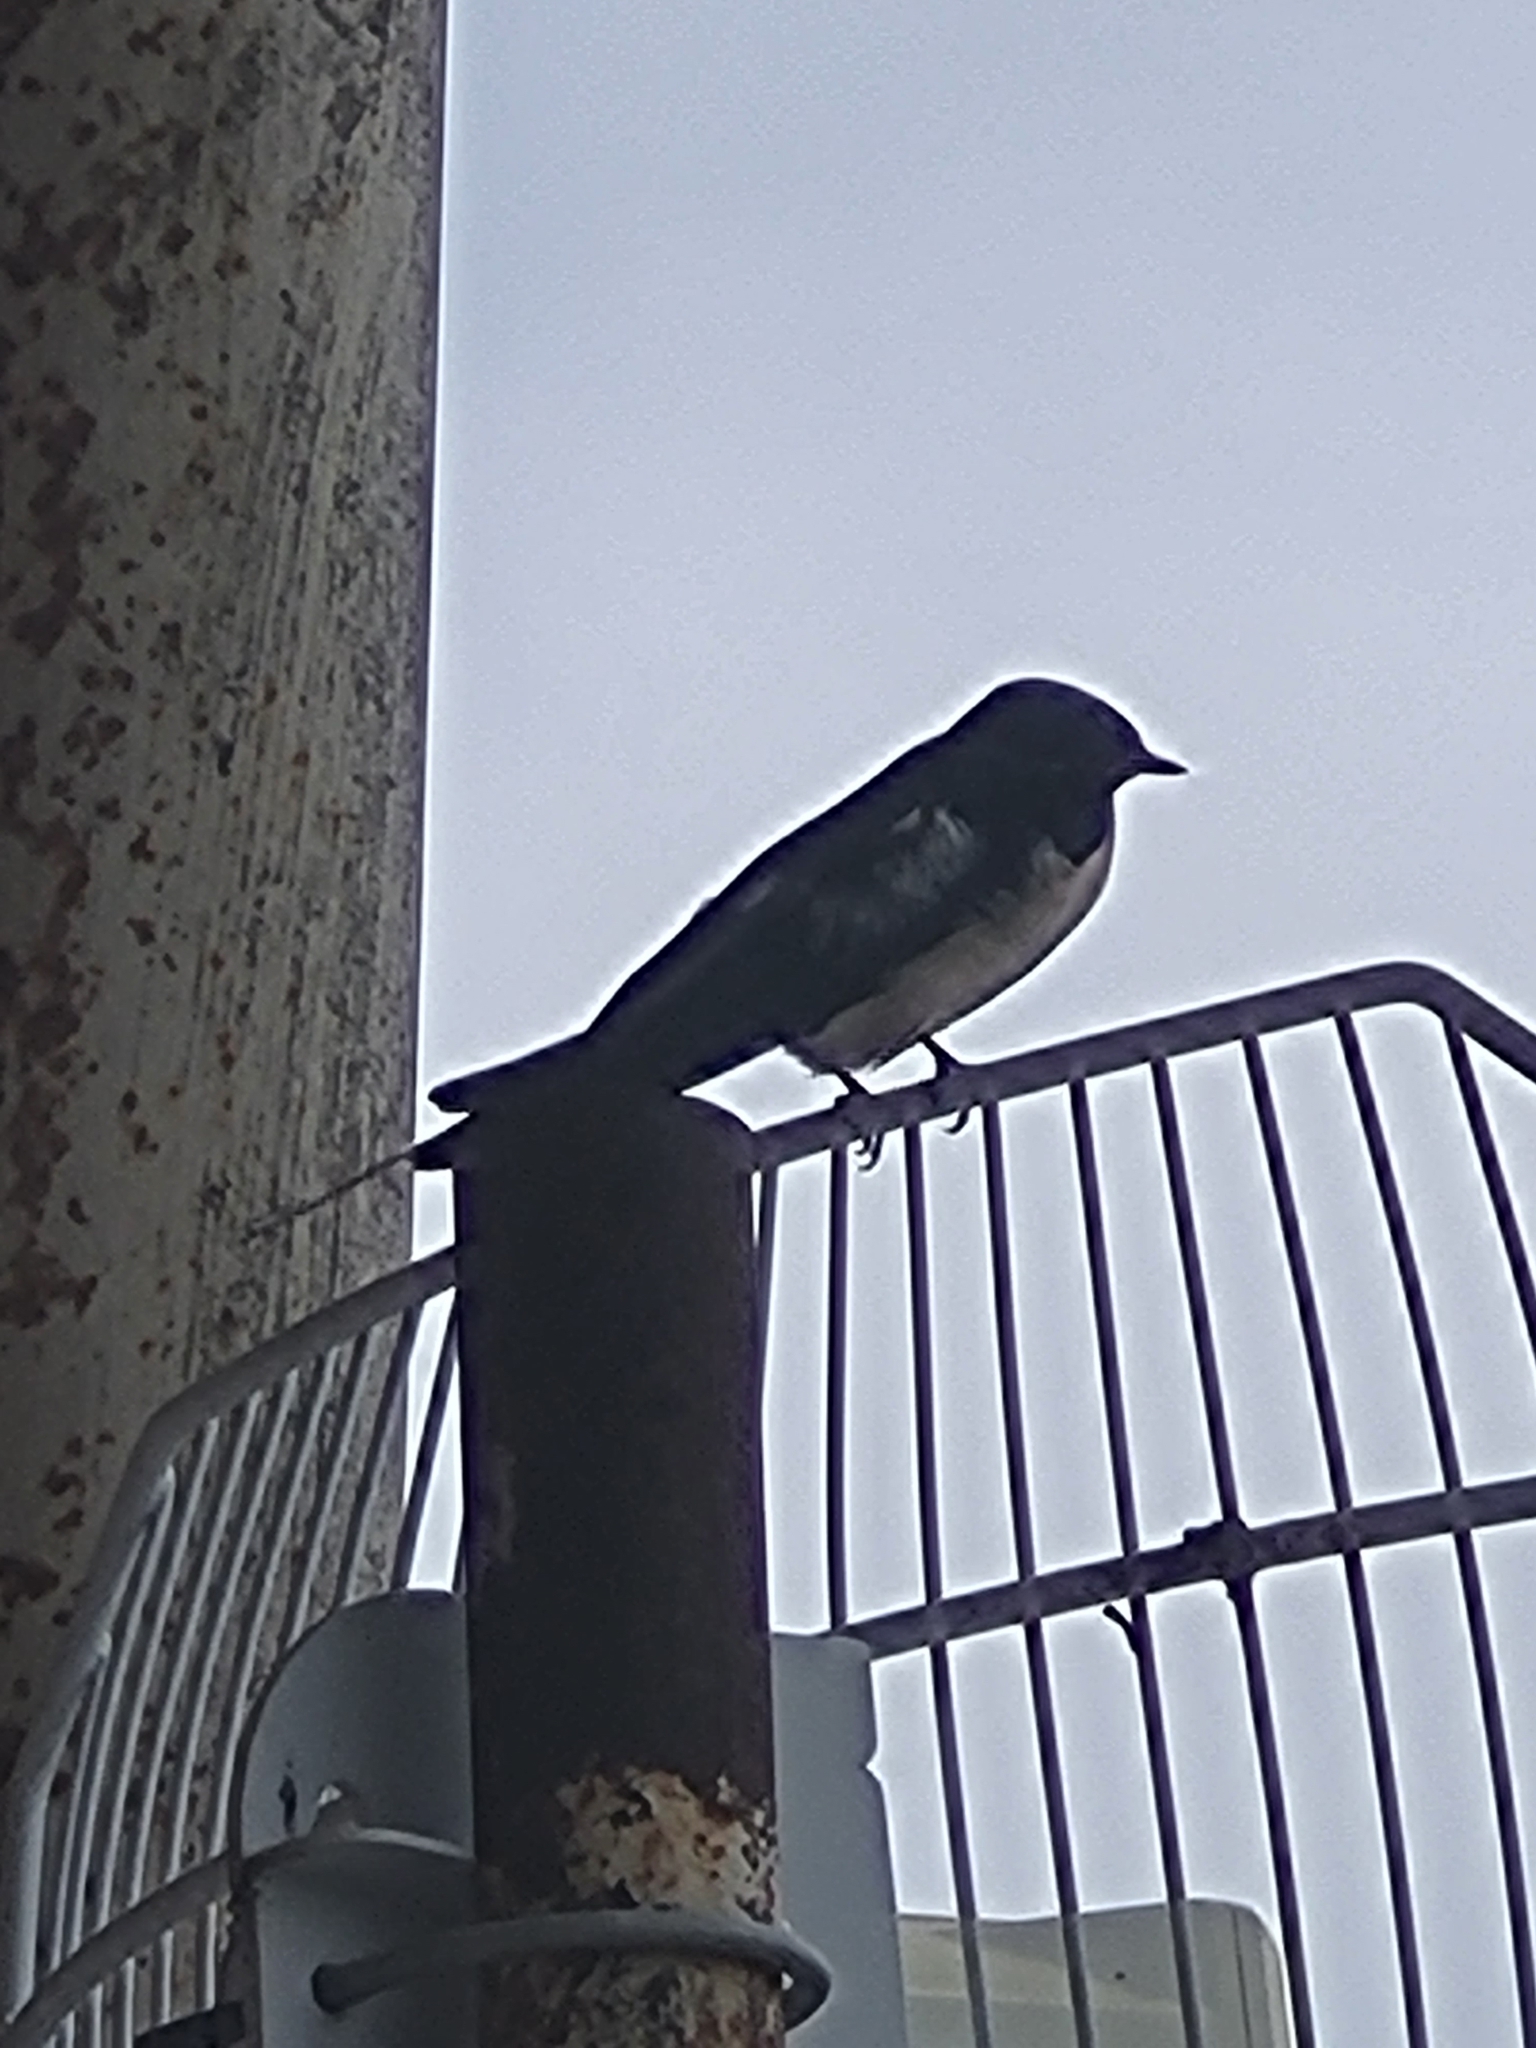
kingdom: Animalia
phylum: Chordata
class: Aves
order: Passeriformes
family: Hirundinidae
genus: Hirundo
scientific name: Hirundo rustica
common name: Barn swallow
